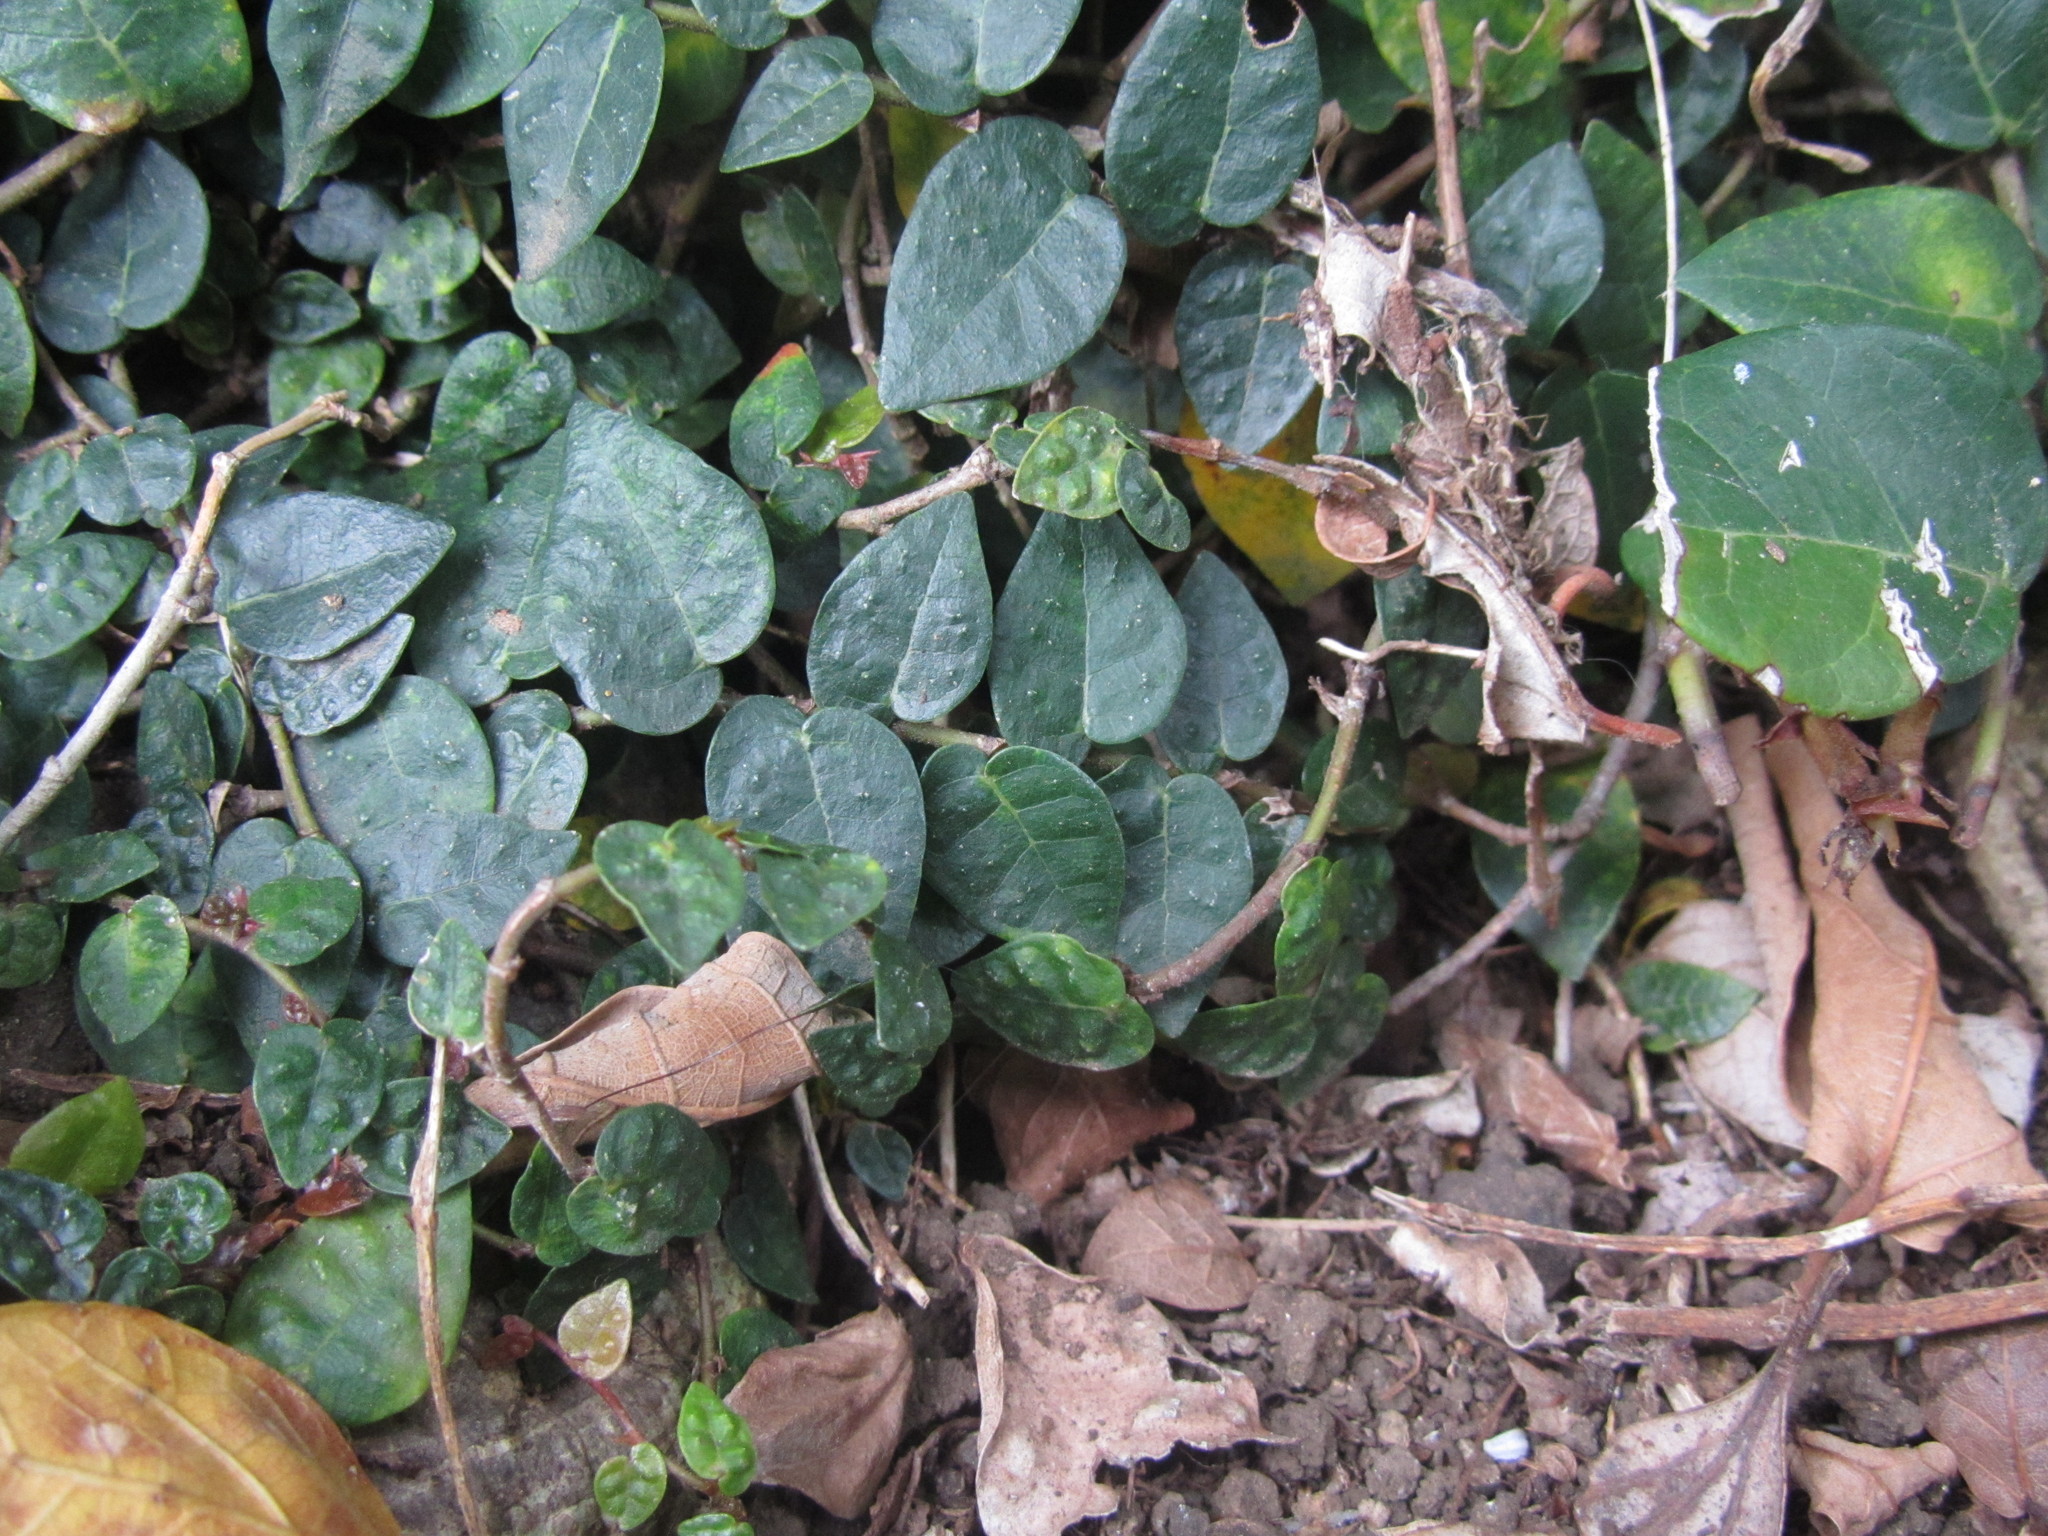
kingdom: Plantae
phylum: Tracheophyta
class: Magnoliopsida
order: Rosales
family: Moraceae
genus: Ficus
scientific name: Ficus pumila
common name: Climbingfig
